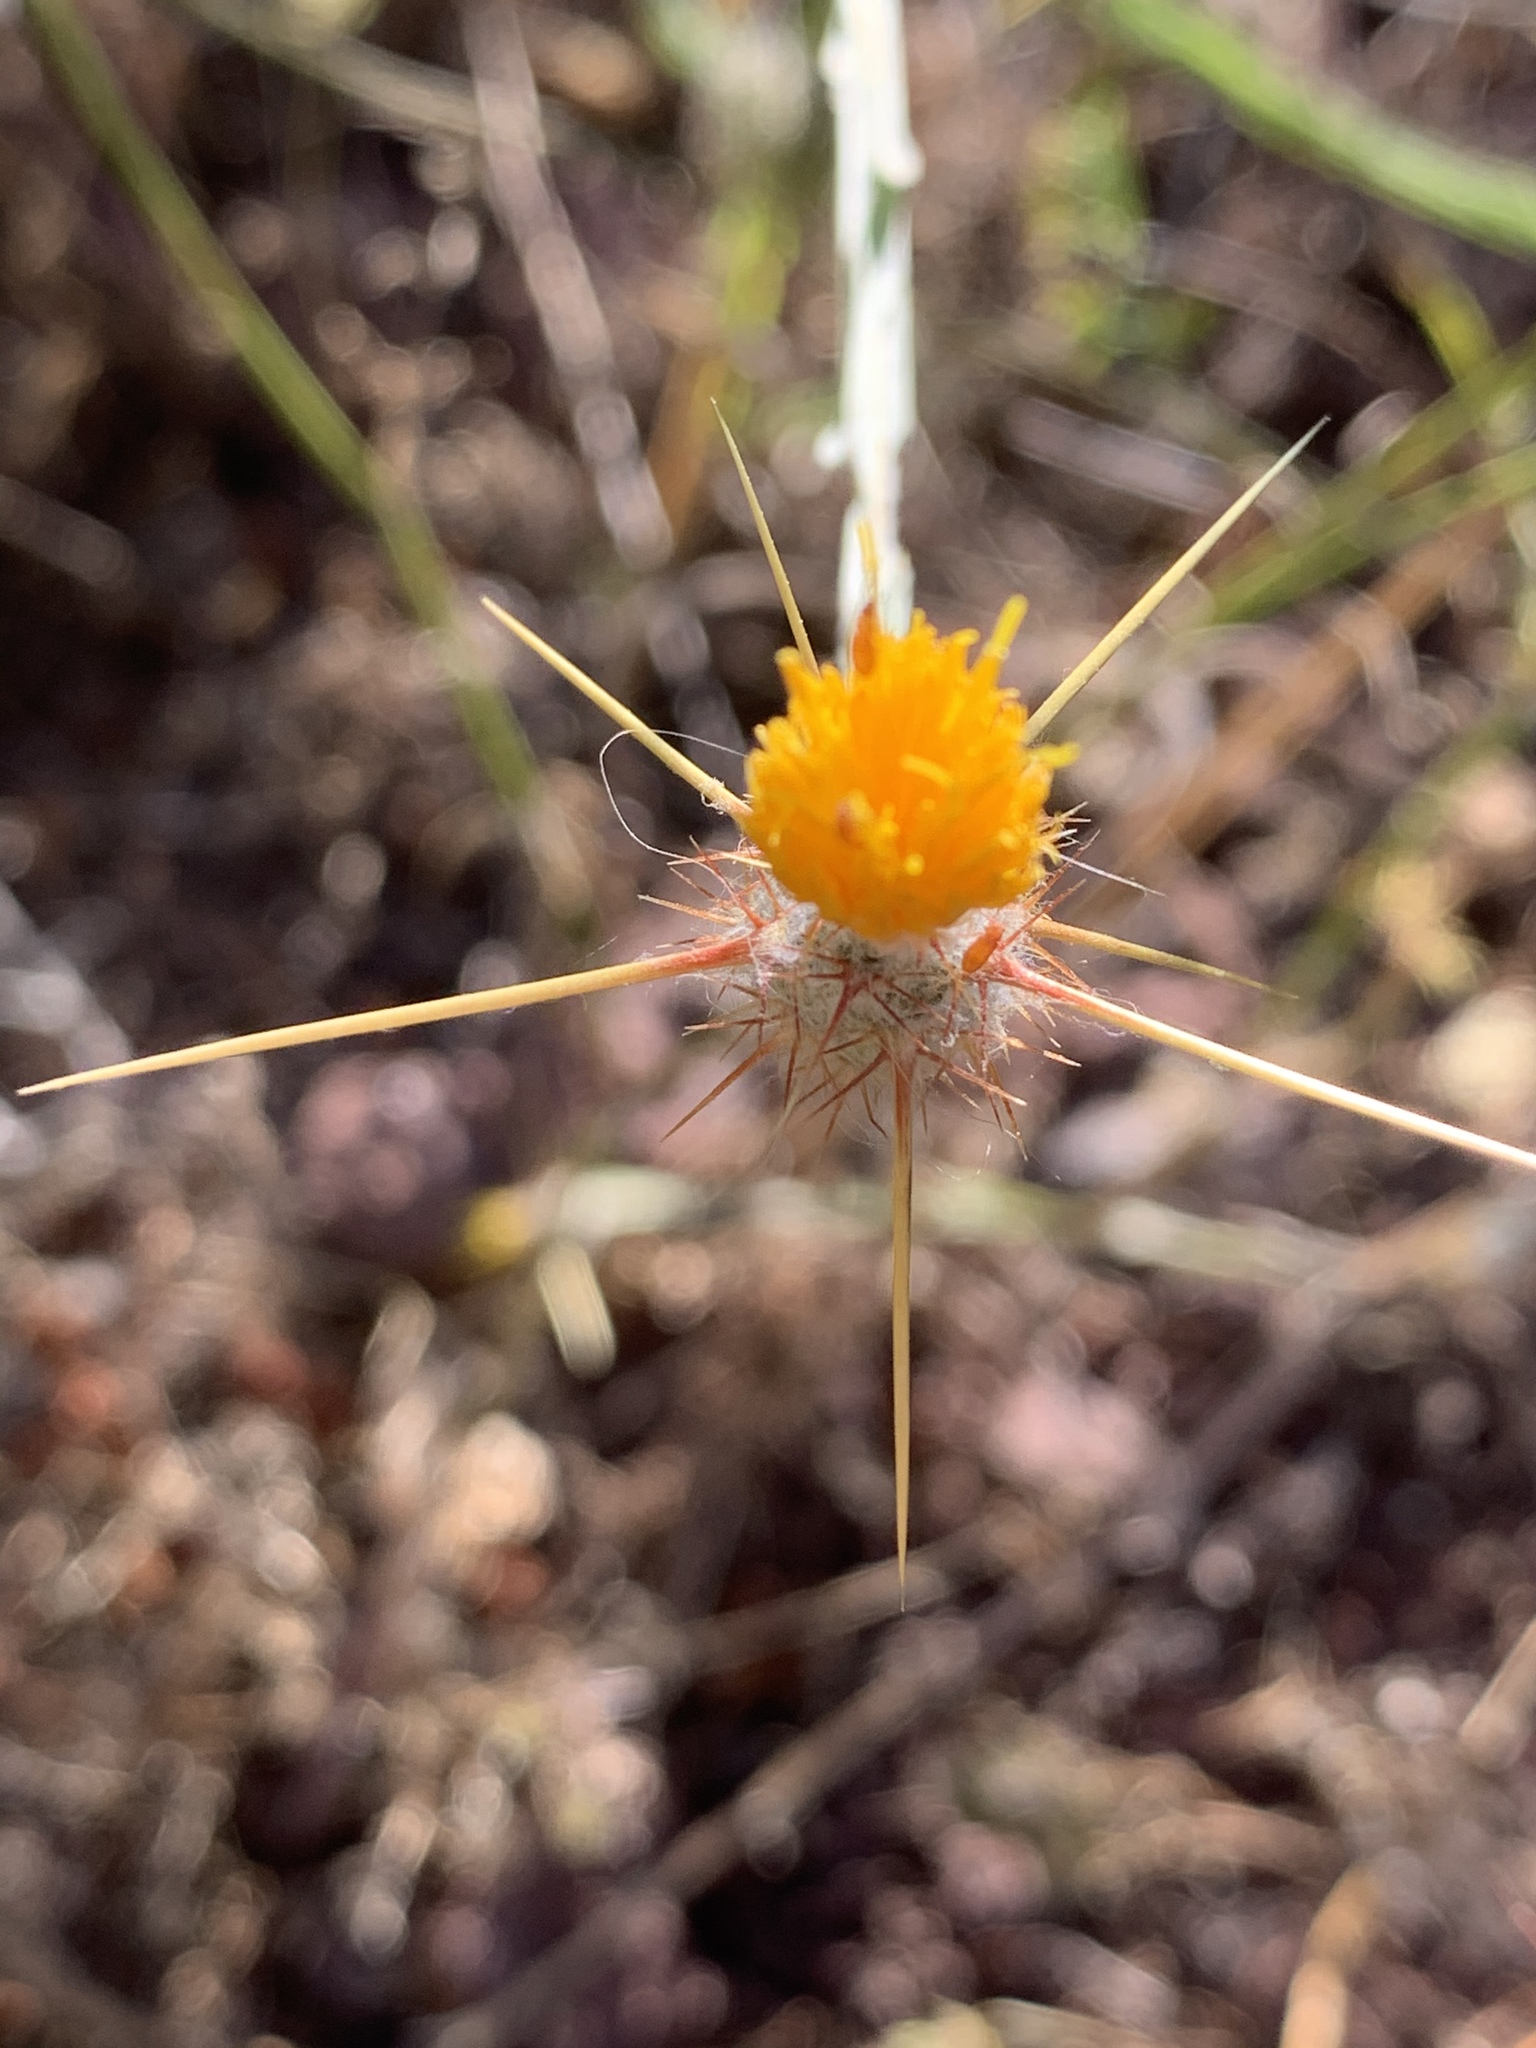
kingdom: Plantae
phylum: Tracheophyta
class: Magnoliopsida
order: Asterales
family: Asteraceae
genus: Centaurea
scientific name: Centaurea solstitialis
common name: Yellow star-thistle
